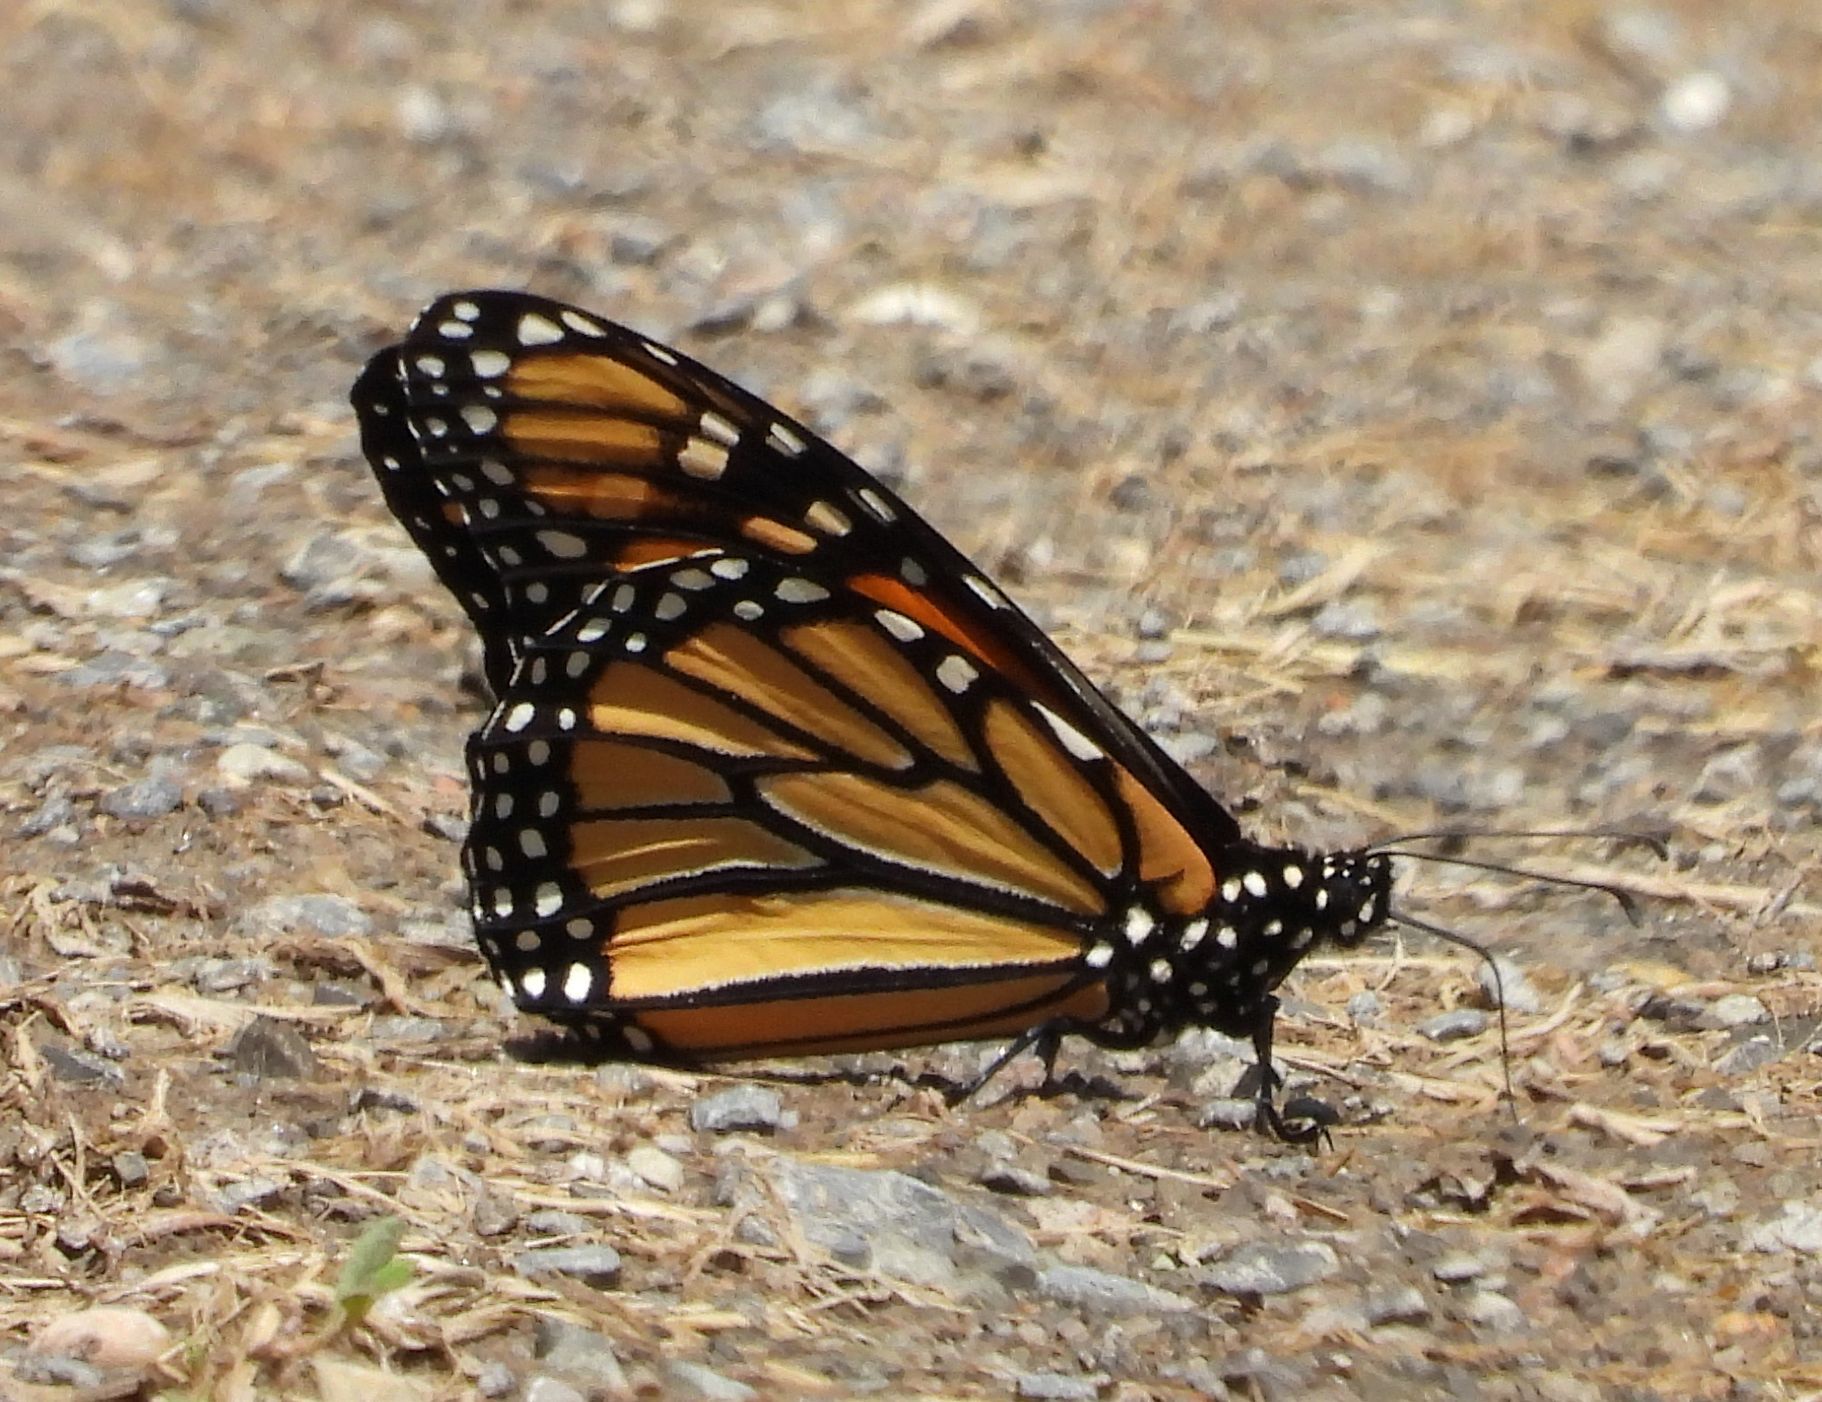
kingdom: Animalia
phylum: Arthropoda
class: Insecta
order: Lepidoptera
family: Nymphalidae
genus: Danaus
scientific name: Danaus plexippus
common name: Monarch
